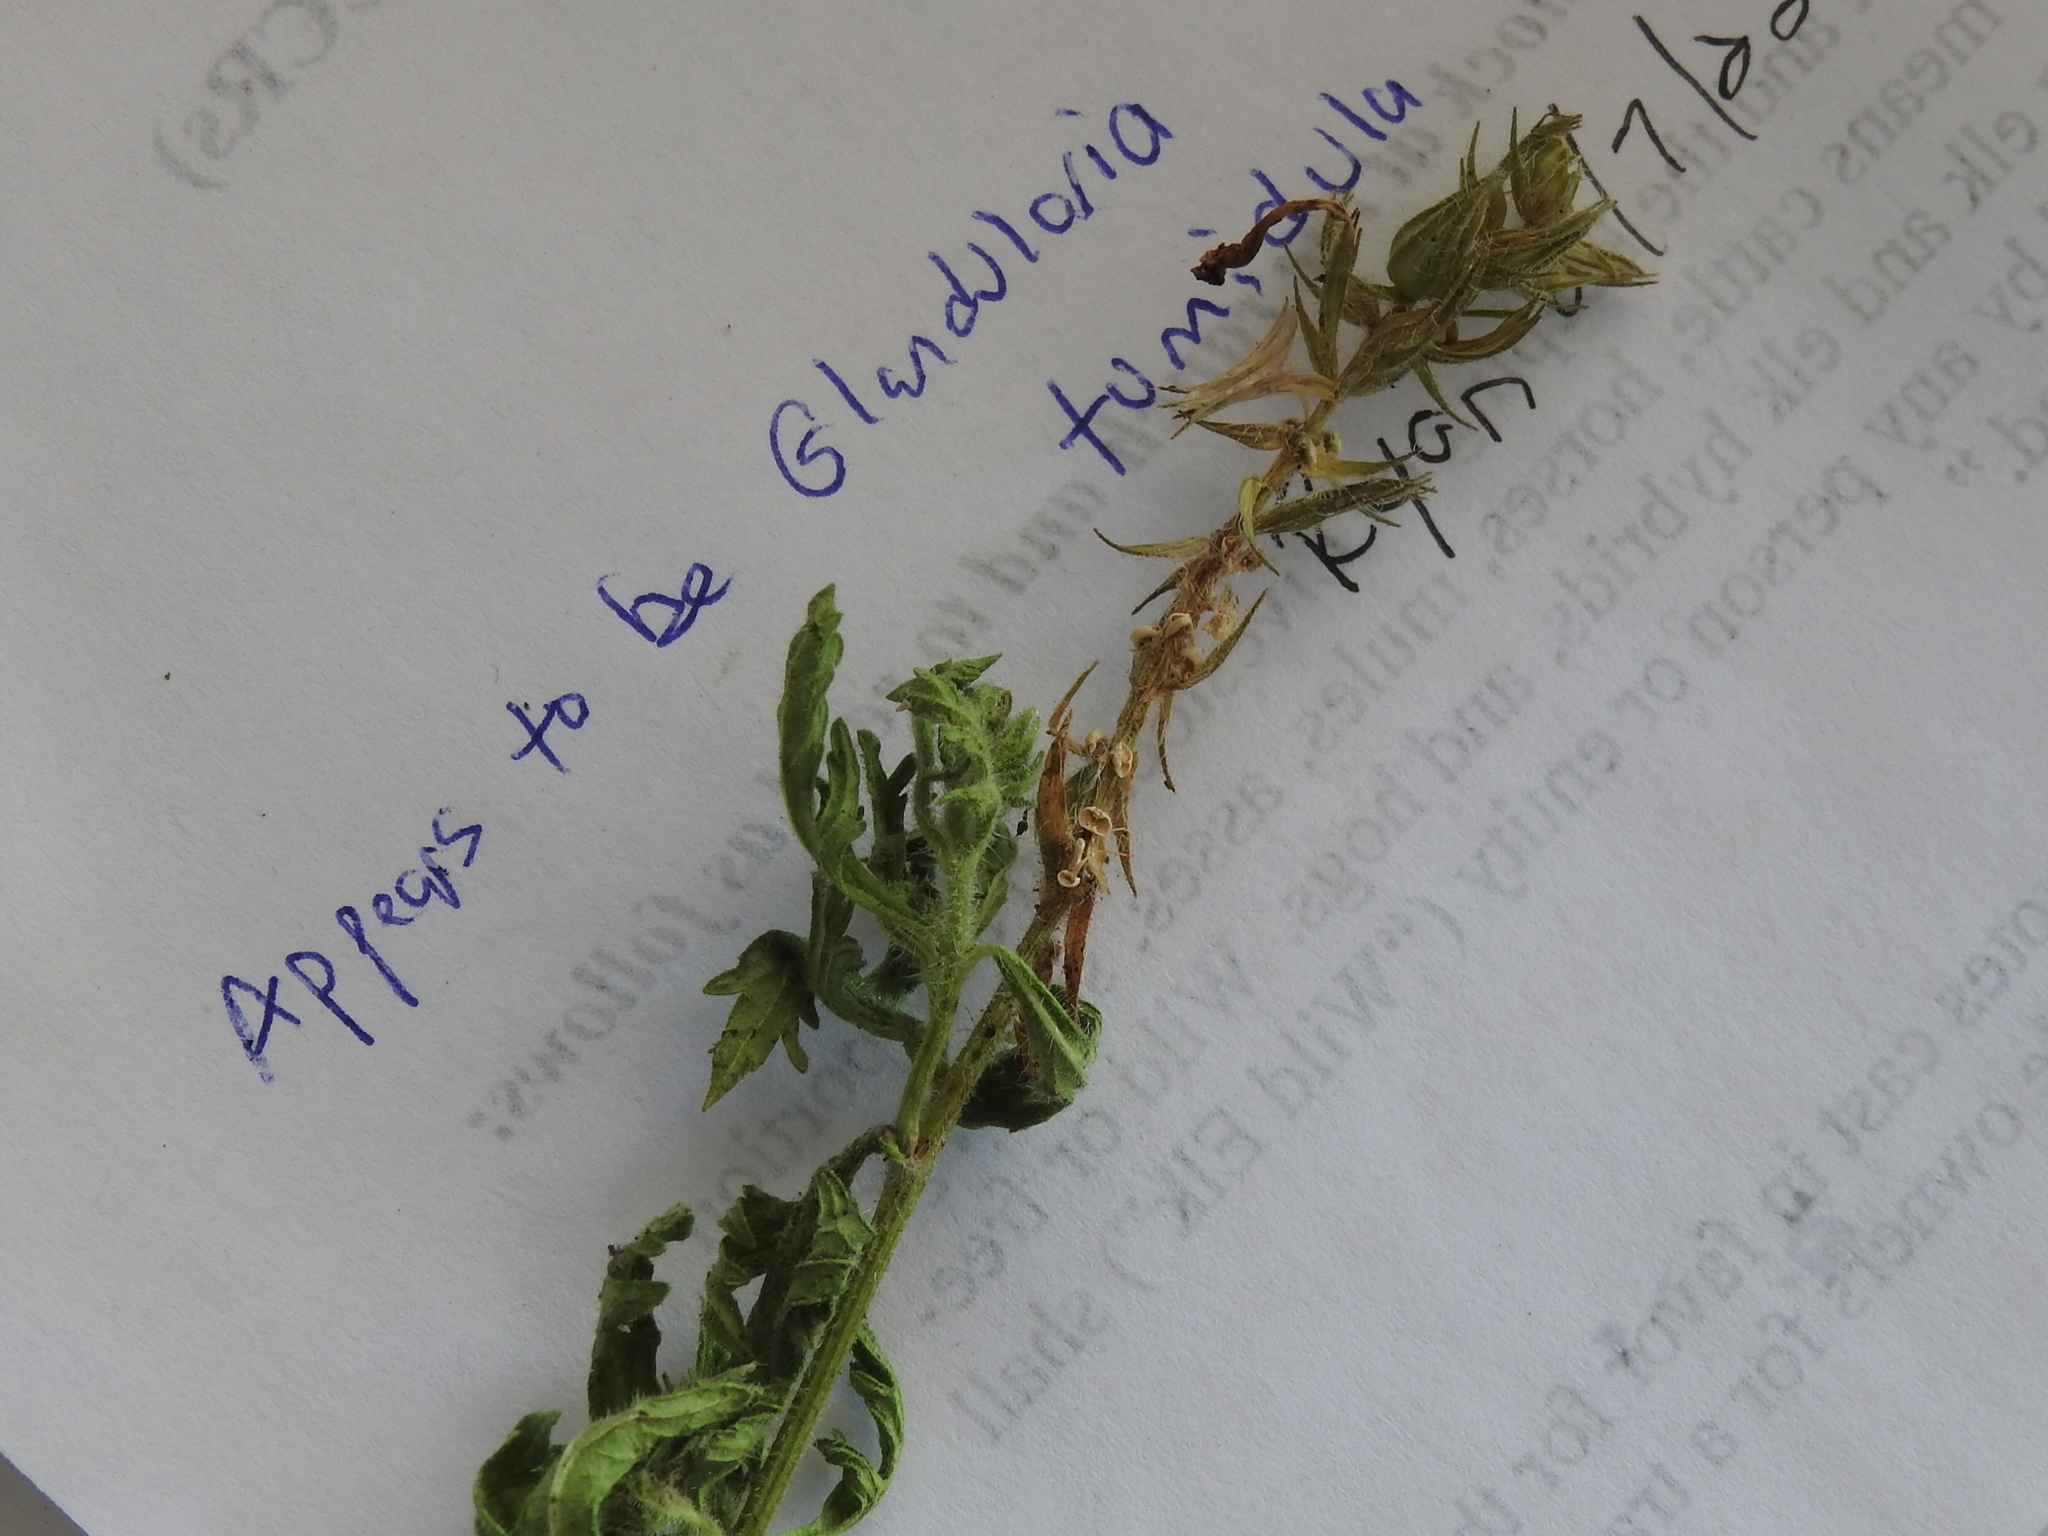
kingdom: Plantae
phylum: Tracheophyta
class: Magnoliopsida
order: Lamiales
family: Verbenaceae
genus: Verbena
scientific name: Verbena tumidula
